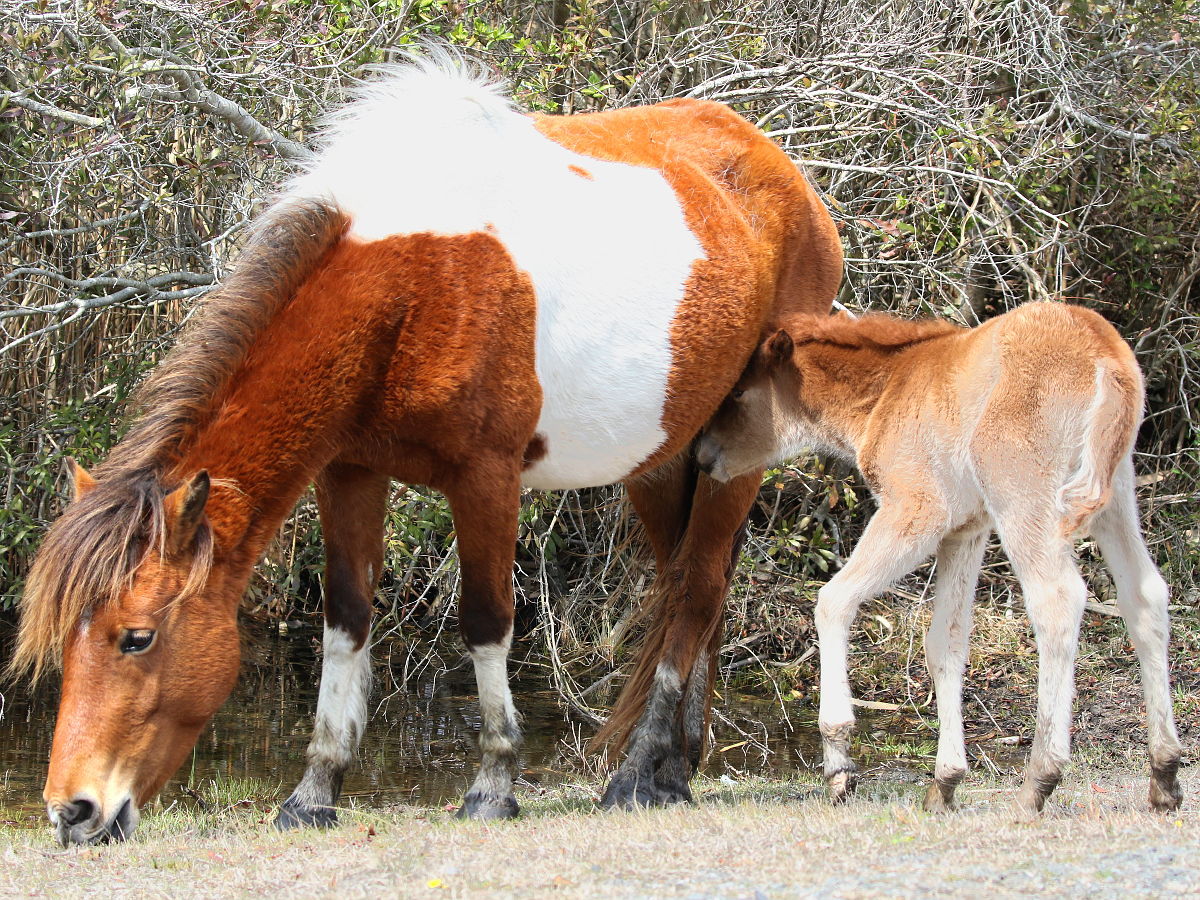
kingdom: Animalia
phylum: Chordata
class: Mammalia
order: Perissodactyla
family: Equidae
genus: Equus
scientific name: Equus caballus
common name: Horse
